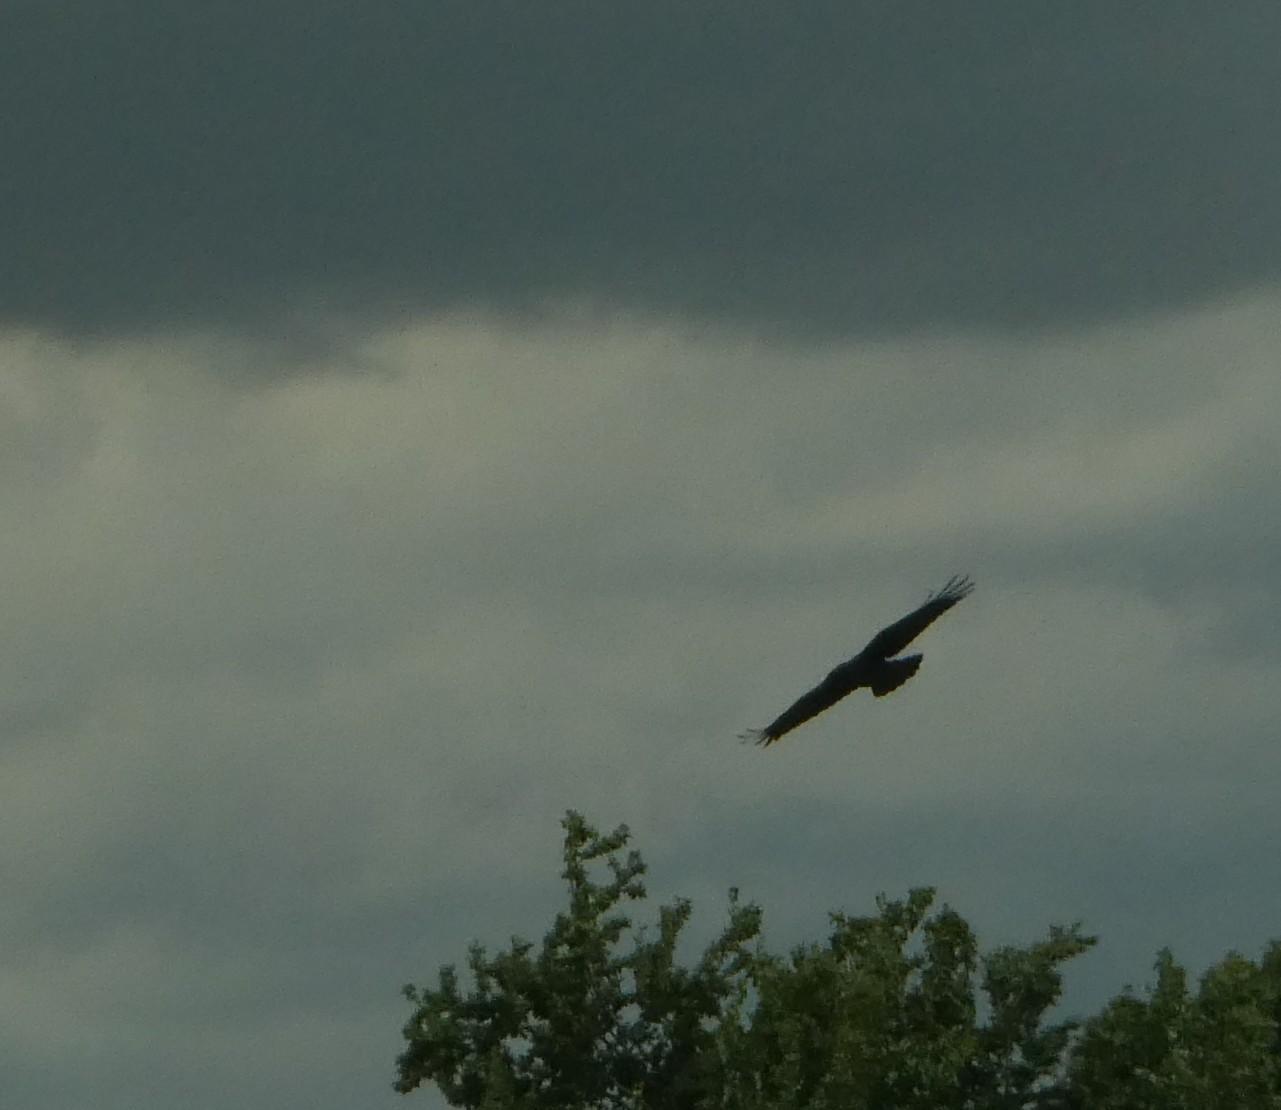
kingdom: Animalia
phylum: Chordata
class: Aves
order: Passeriformes
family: Corvidae
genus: Corvus
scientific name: Corvus corax
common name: Common raven
